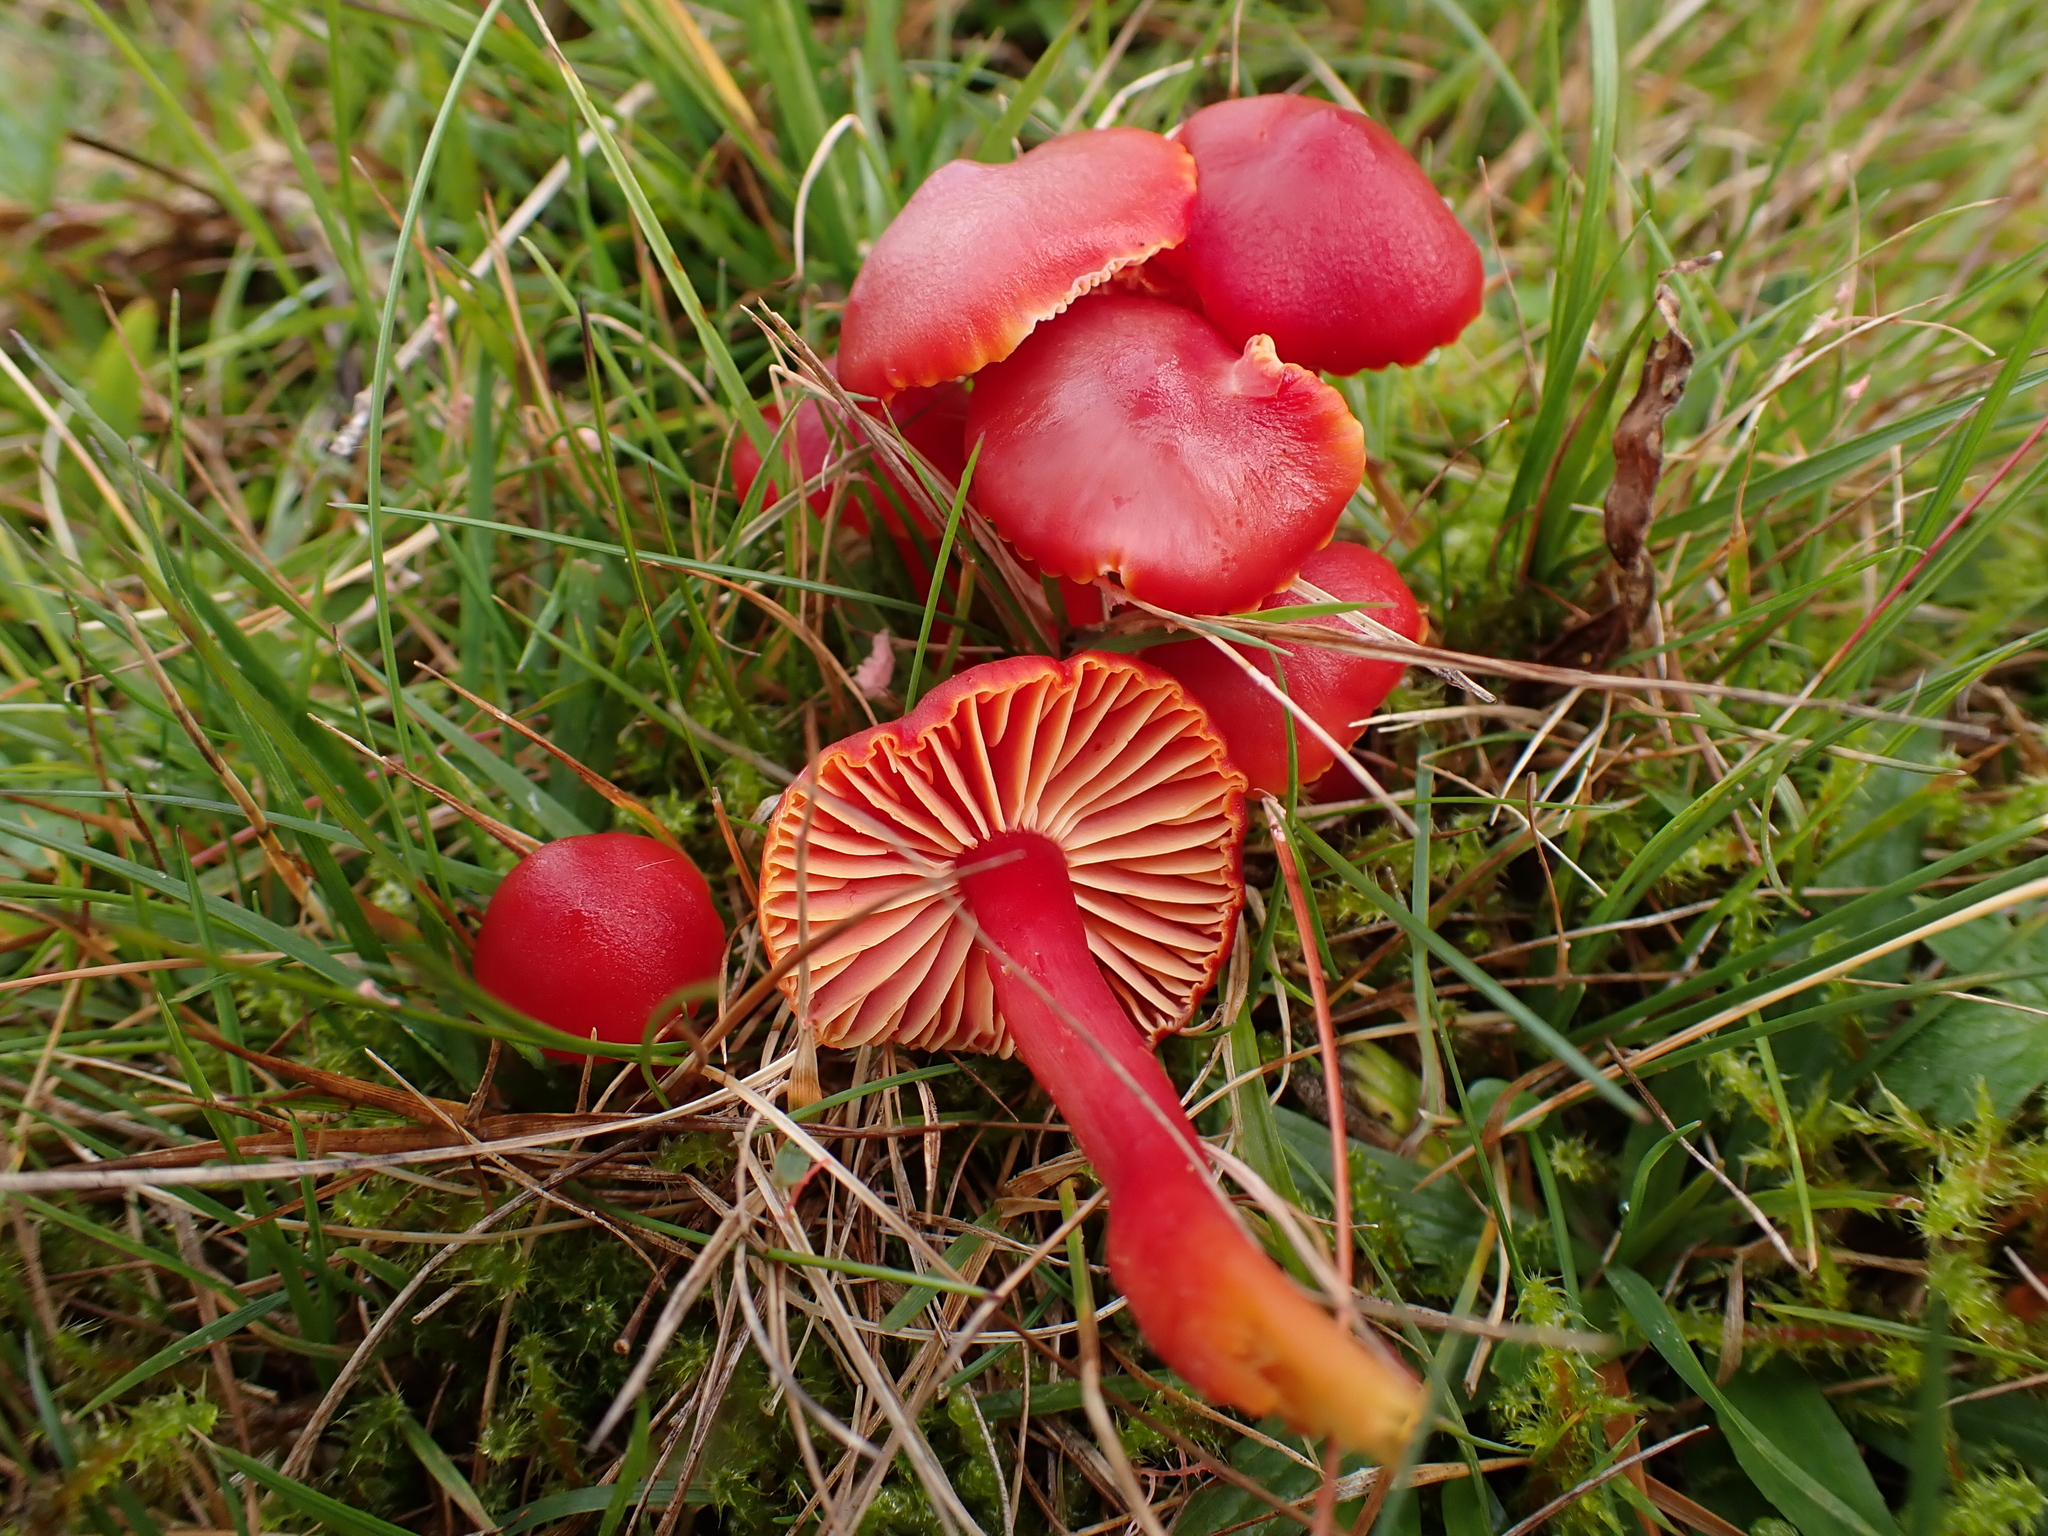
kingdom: Fungi
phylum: Basidiomycota
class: Agaricomycetes
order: Agaricales
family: Hygrophoraceae
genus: Hygrocybe
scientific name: Hygrocybe coccinea
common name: Scarlet hood
